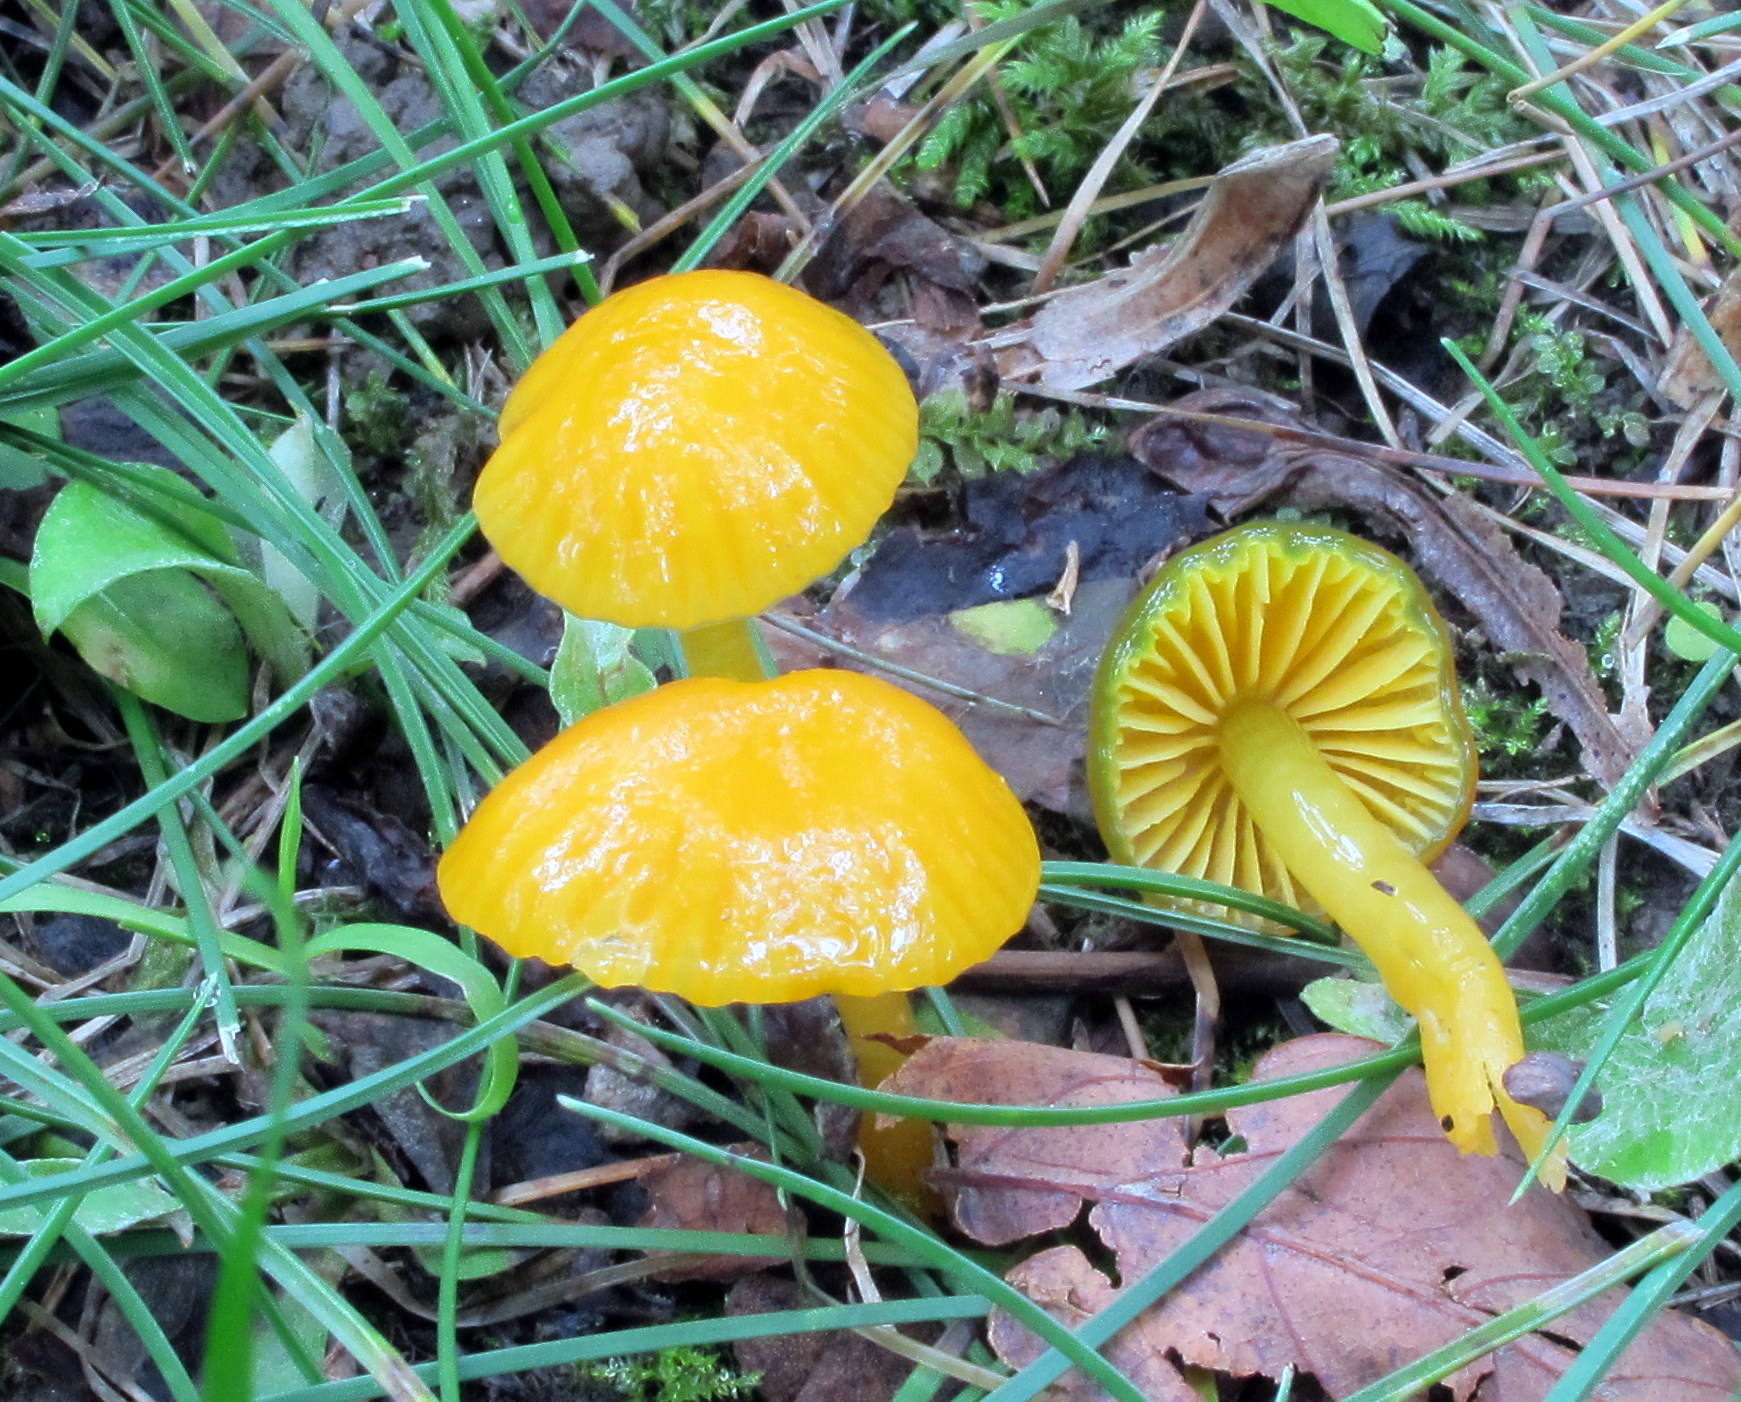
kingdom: Fungi
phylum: Basidiomycota
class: Agaricomycetes
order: Agaricales
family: Hygrophoraceae
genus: Gliophorus
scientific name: Gliophorus psittacinus
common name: Parrot wax-cap
